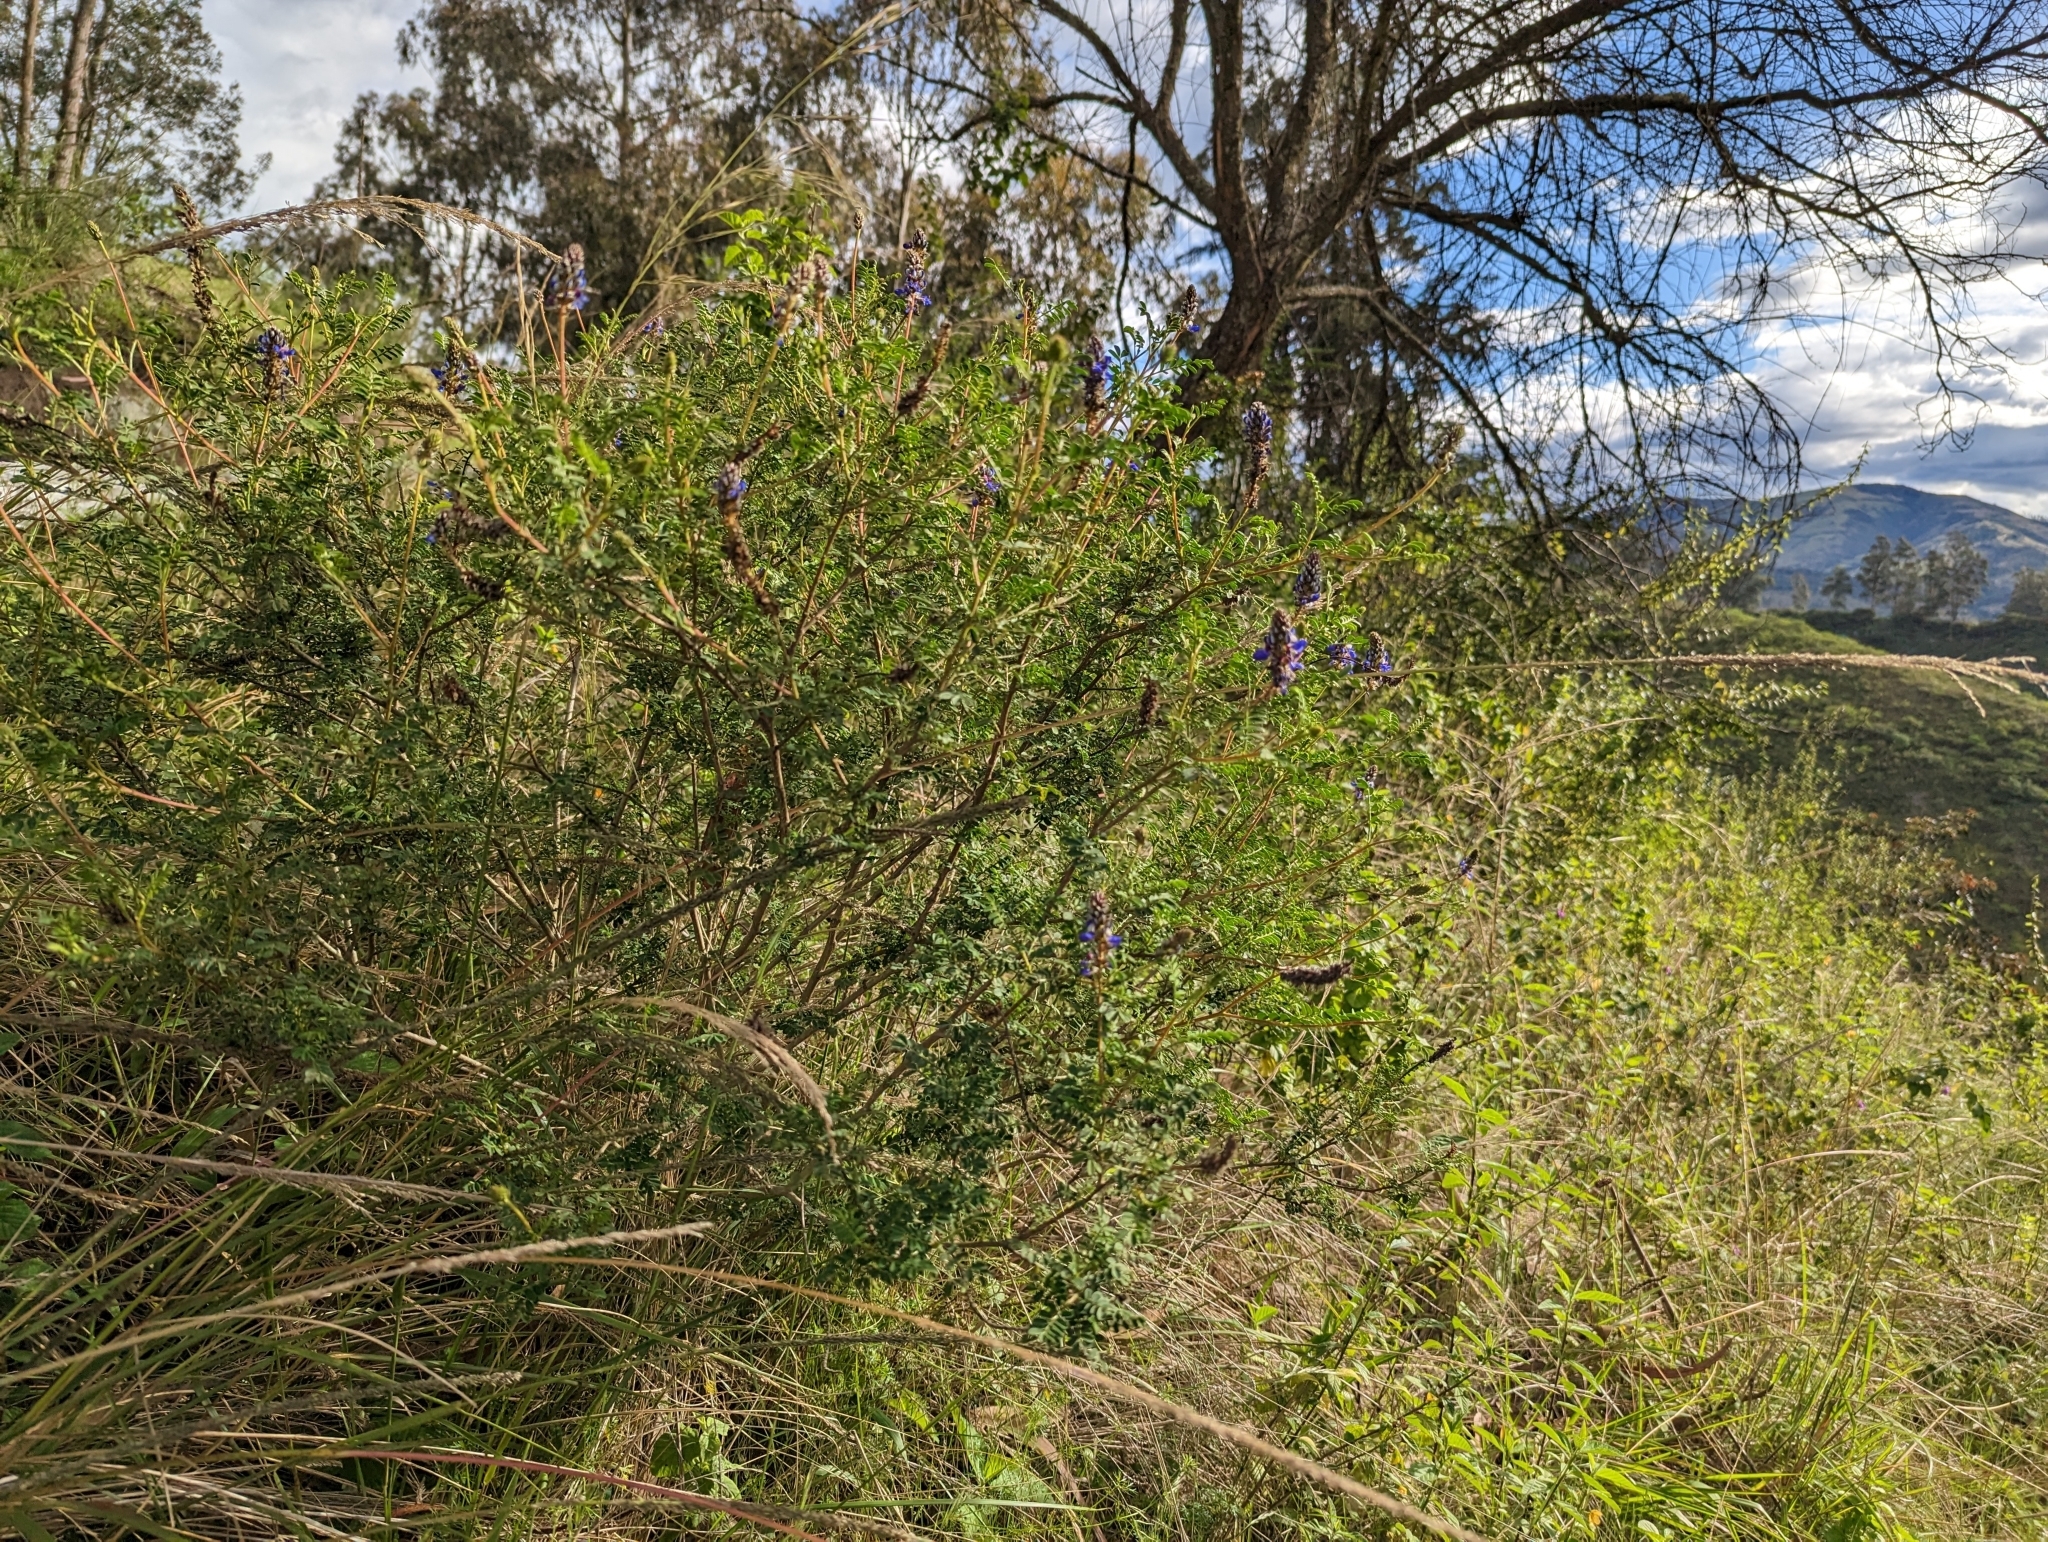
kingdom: Plantae
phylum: Tracheophyta
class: Magnoliopsida
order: Fabales
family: Fabaceae
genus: Dalea
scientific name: Dalea coerulea
